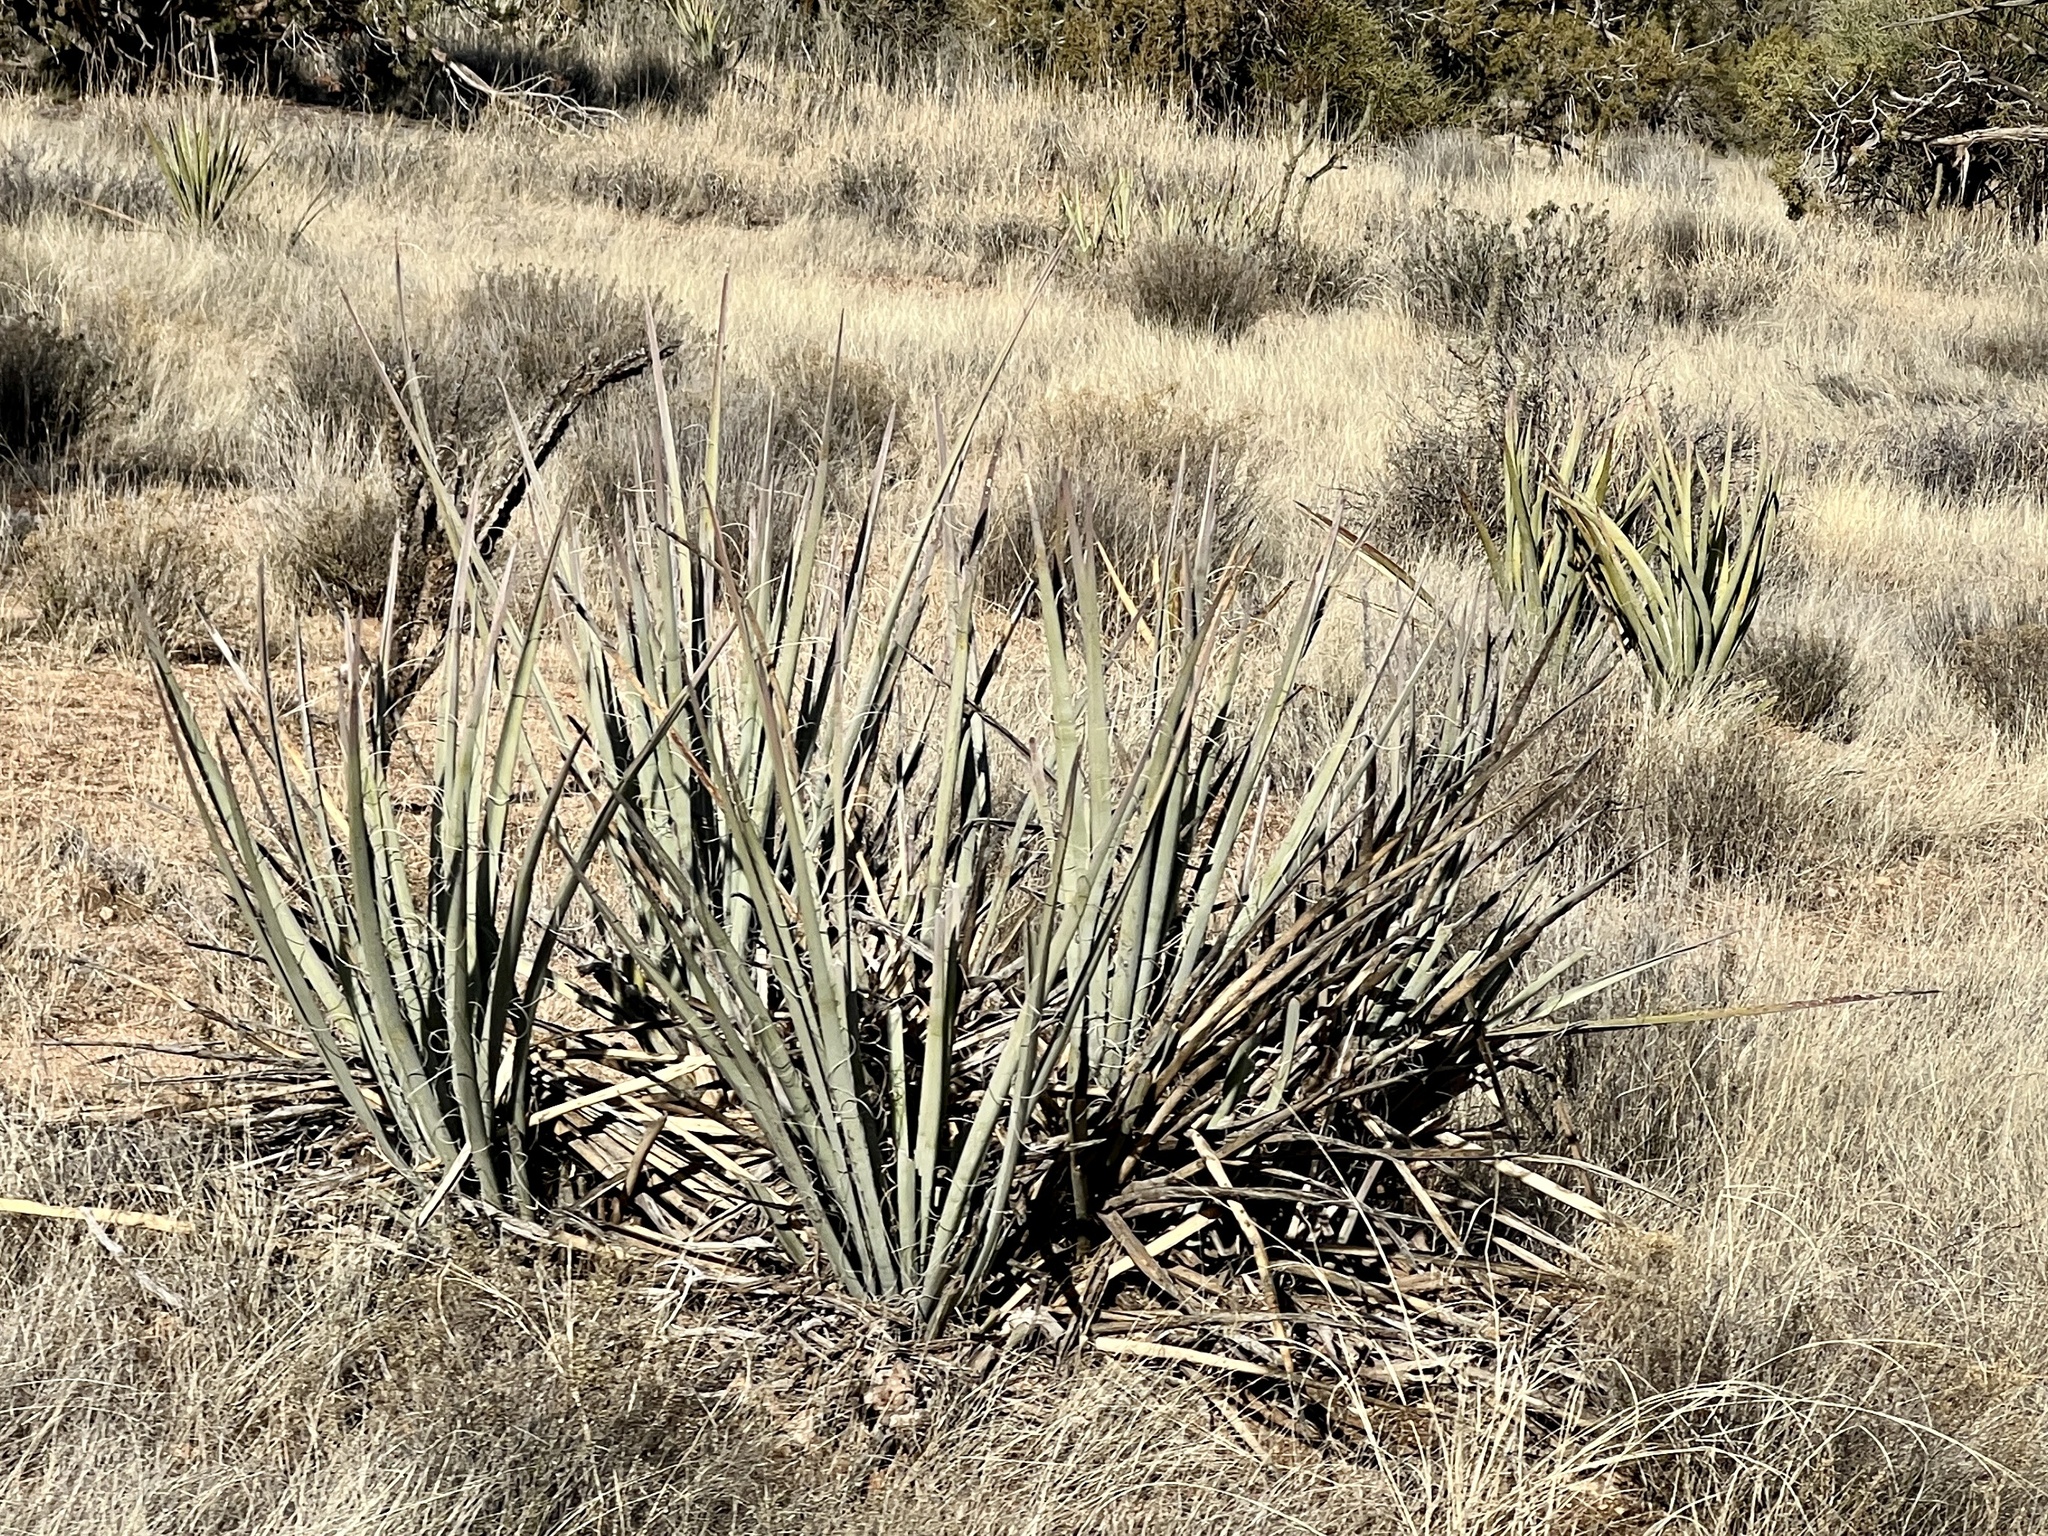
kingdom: Plantae
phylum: Tracheophyta
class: Liliopsida
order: Asparagales
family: Asparagaceae
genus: Yucca
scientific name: Yucca baccata
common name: Banana yucca
